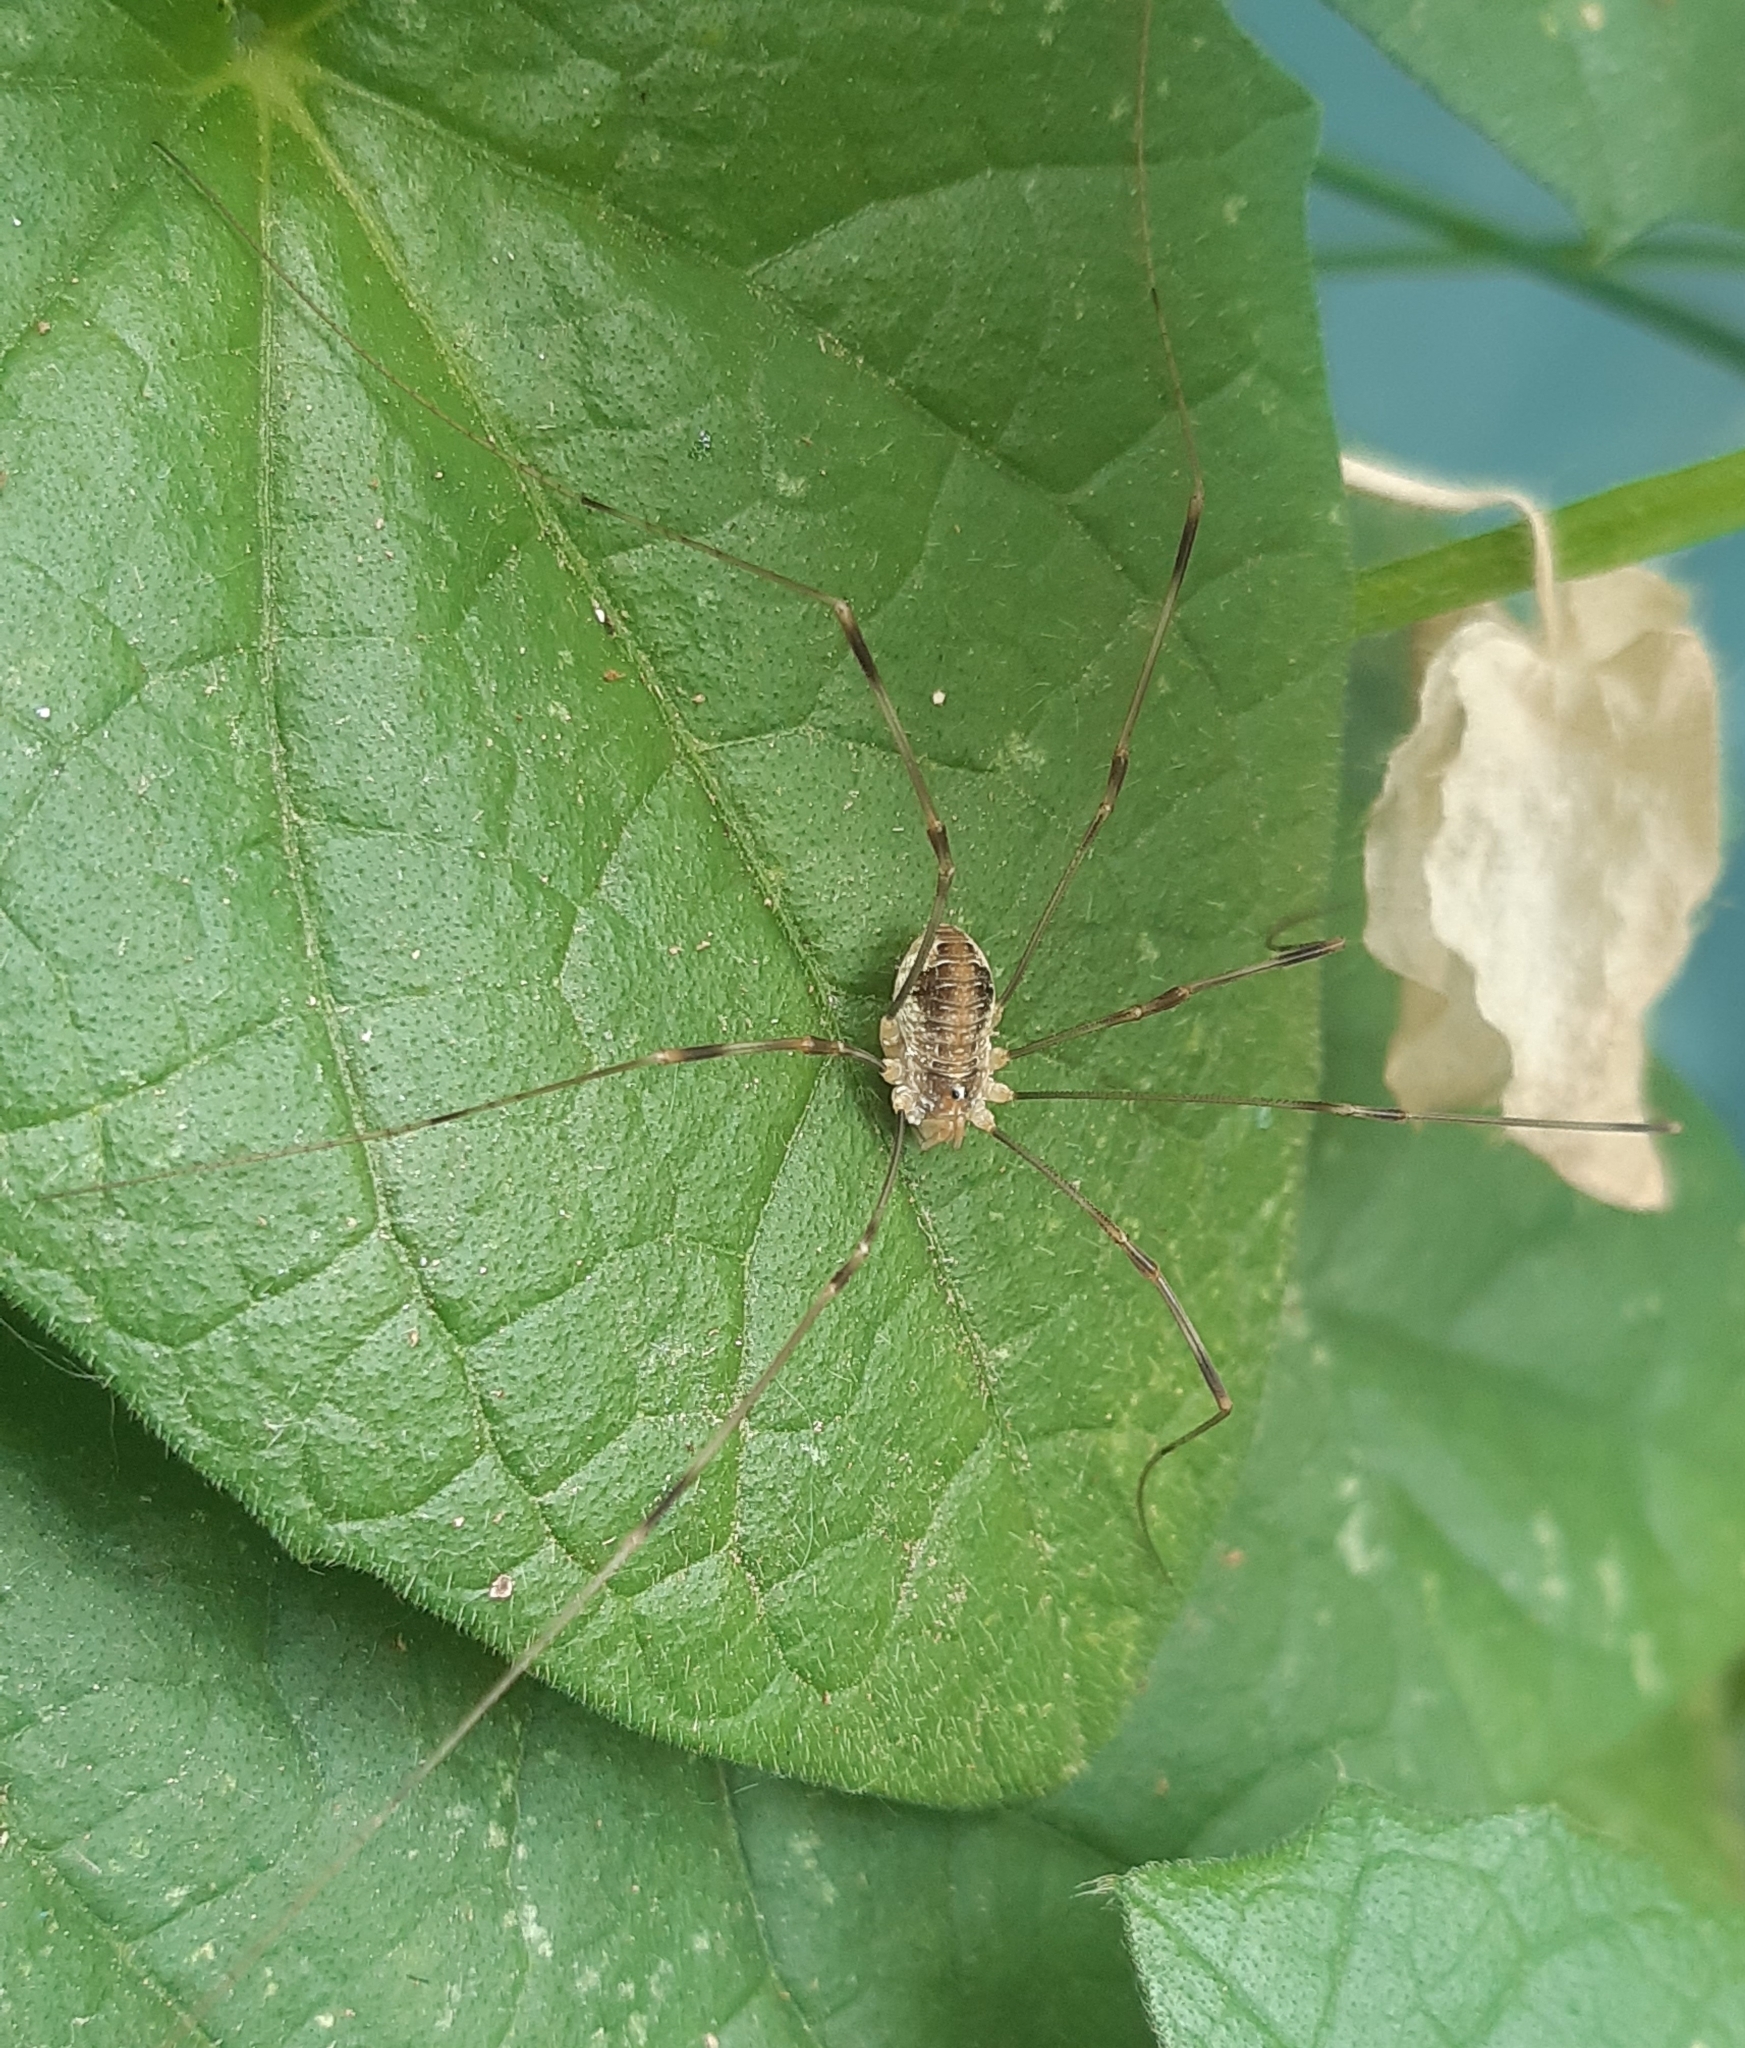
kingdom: Animalia
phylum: Arthropoda
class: Arachnida
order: Opiliones
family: Phalangiidae
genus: Opilio
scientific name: Opilio canestrinii
